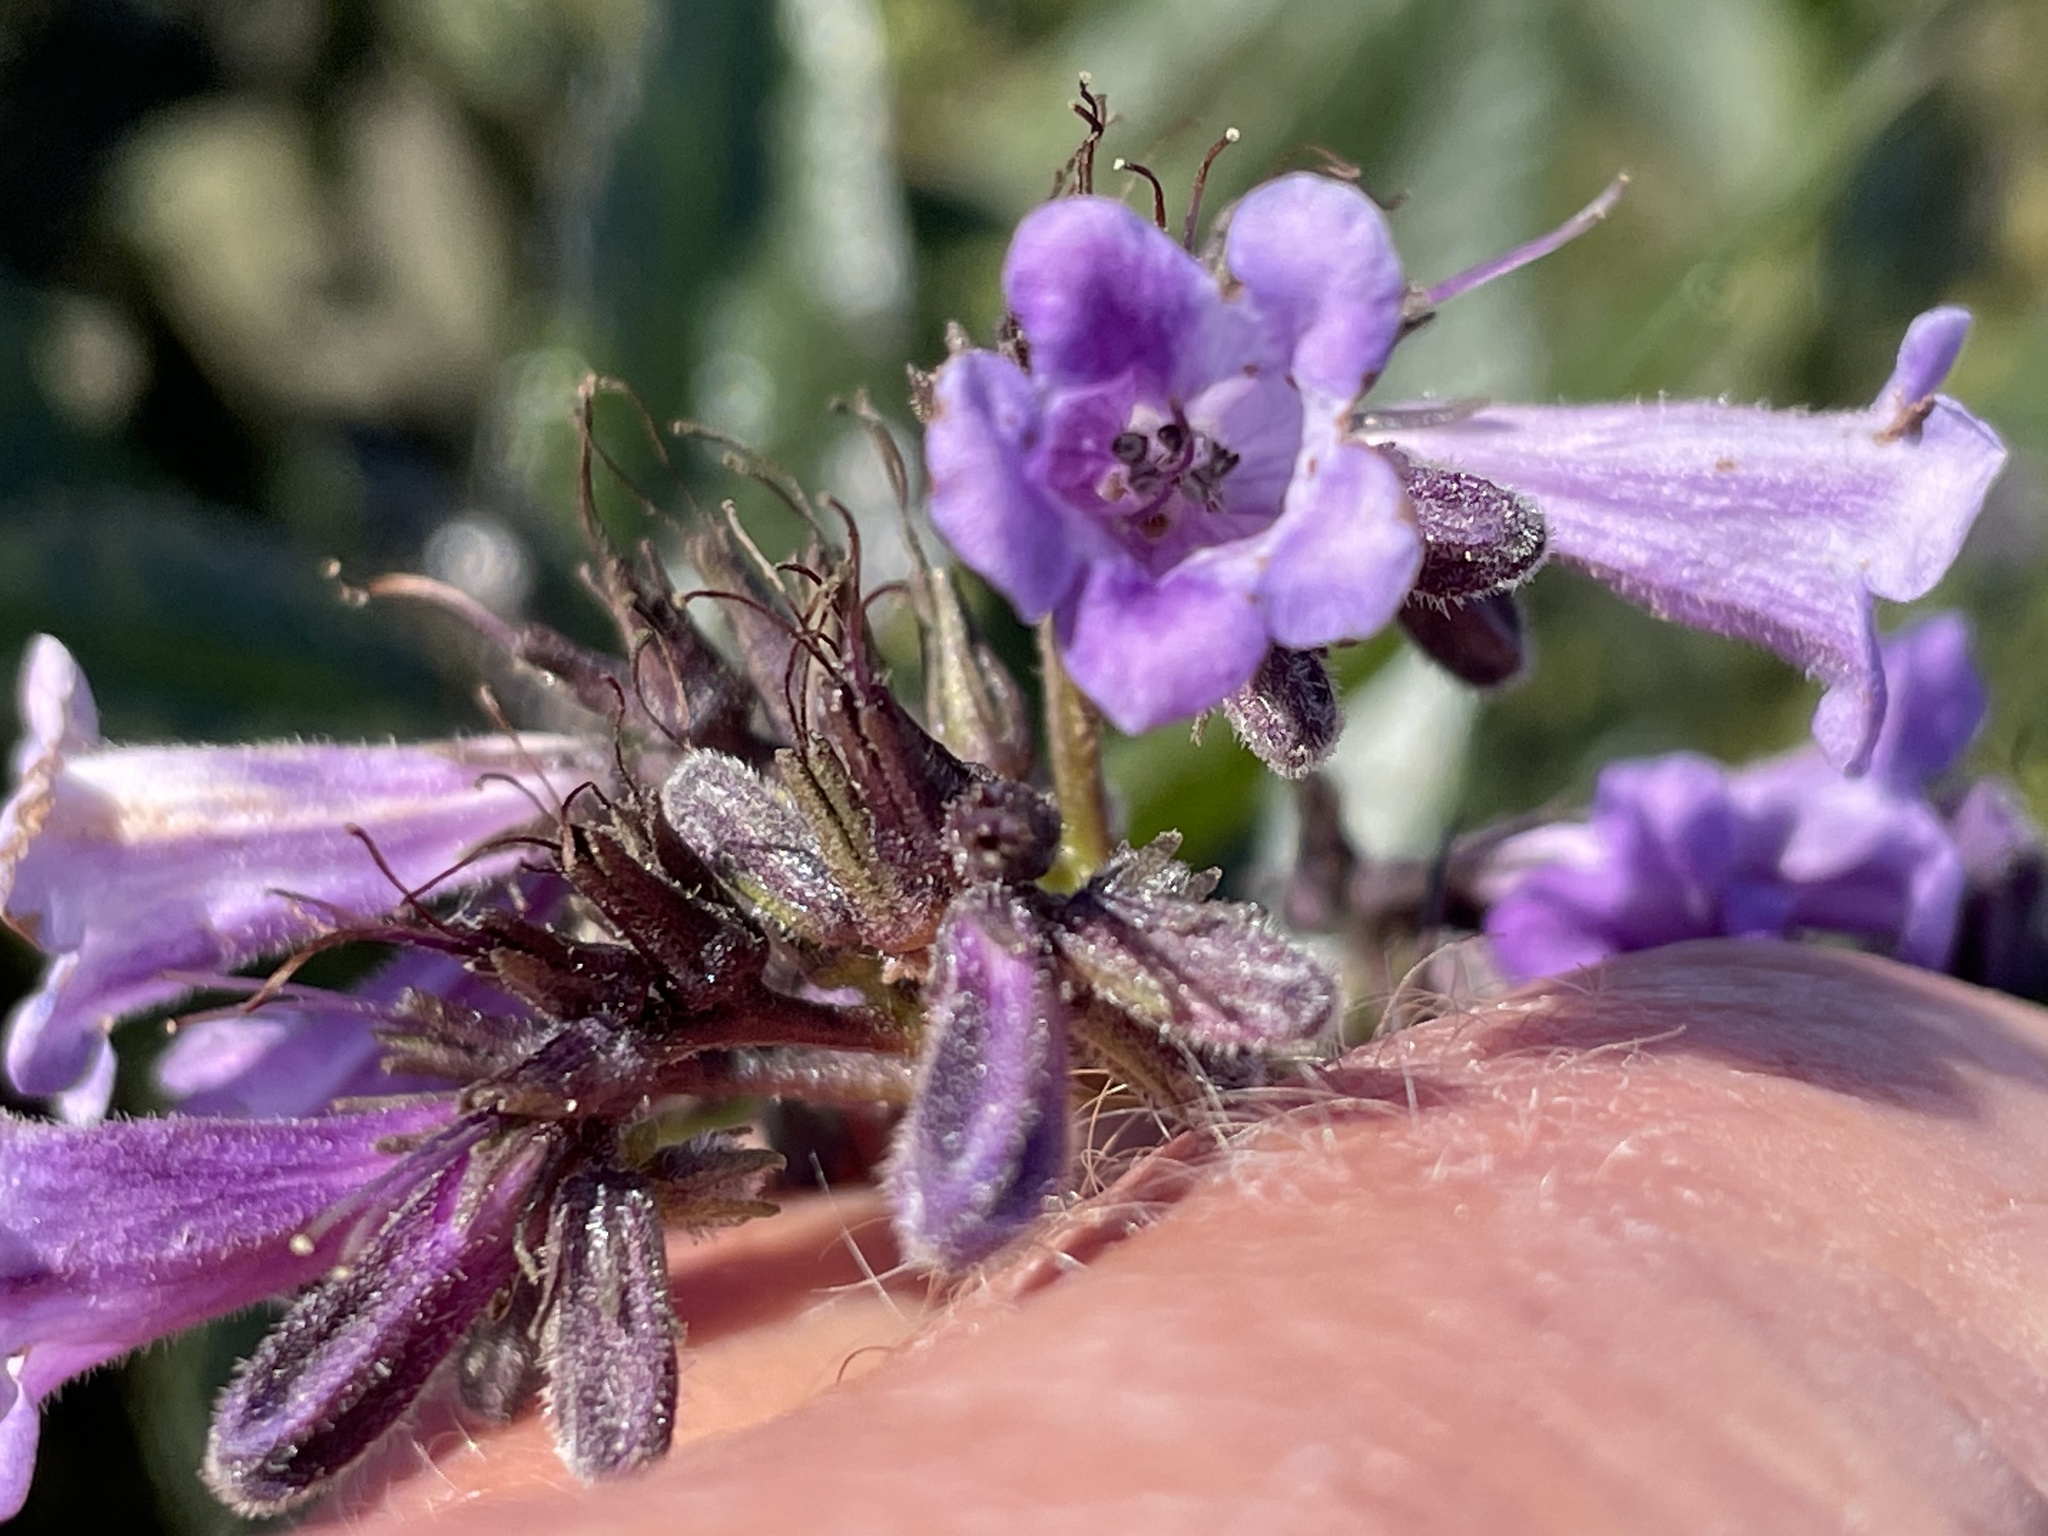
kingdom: Plantae
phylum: Tracheophyta
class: Magnoliopsida
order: Boraginales
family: Namaceae
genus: Eriodictyon
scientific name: Eriodictyon californicum
